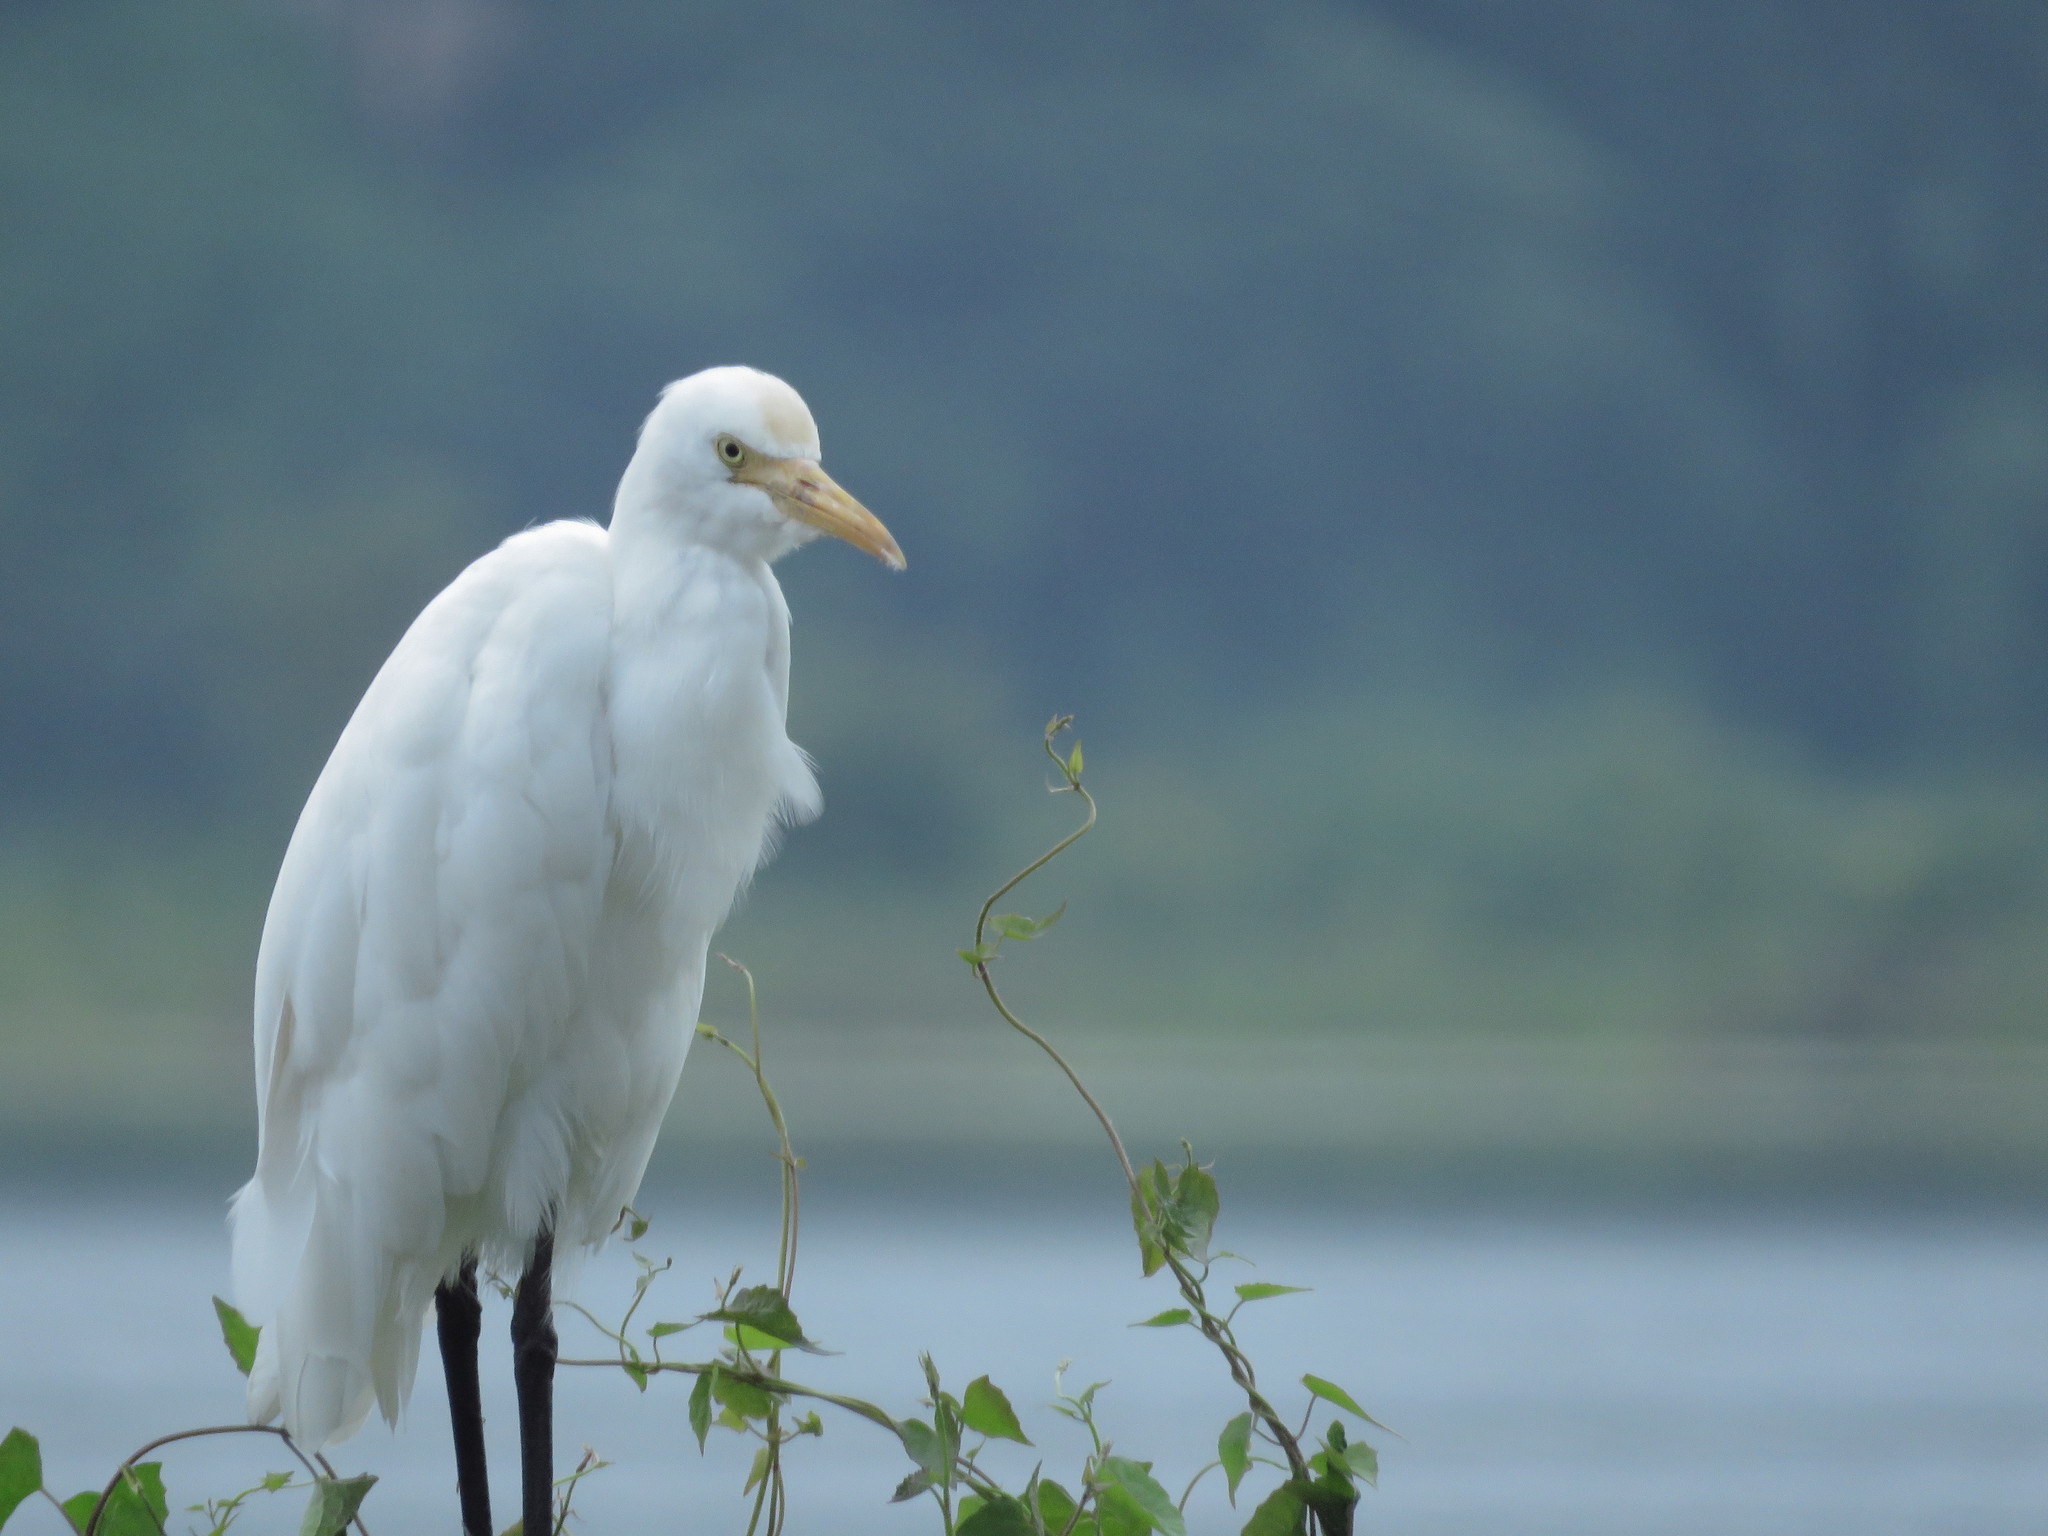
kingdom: Animalia
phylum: Chordata
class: Aves
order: Pelecaniformes
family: Ardeidae
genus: Bubulcus
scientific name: Bubulcus coromandus
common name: Eastern cattle egret
